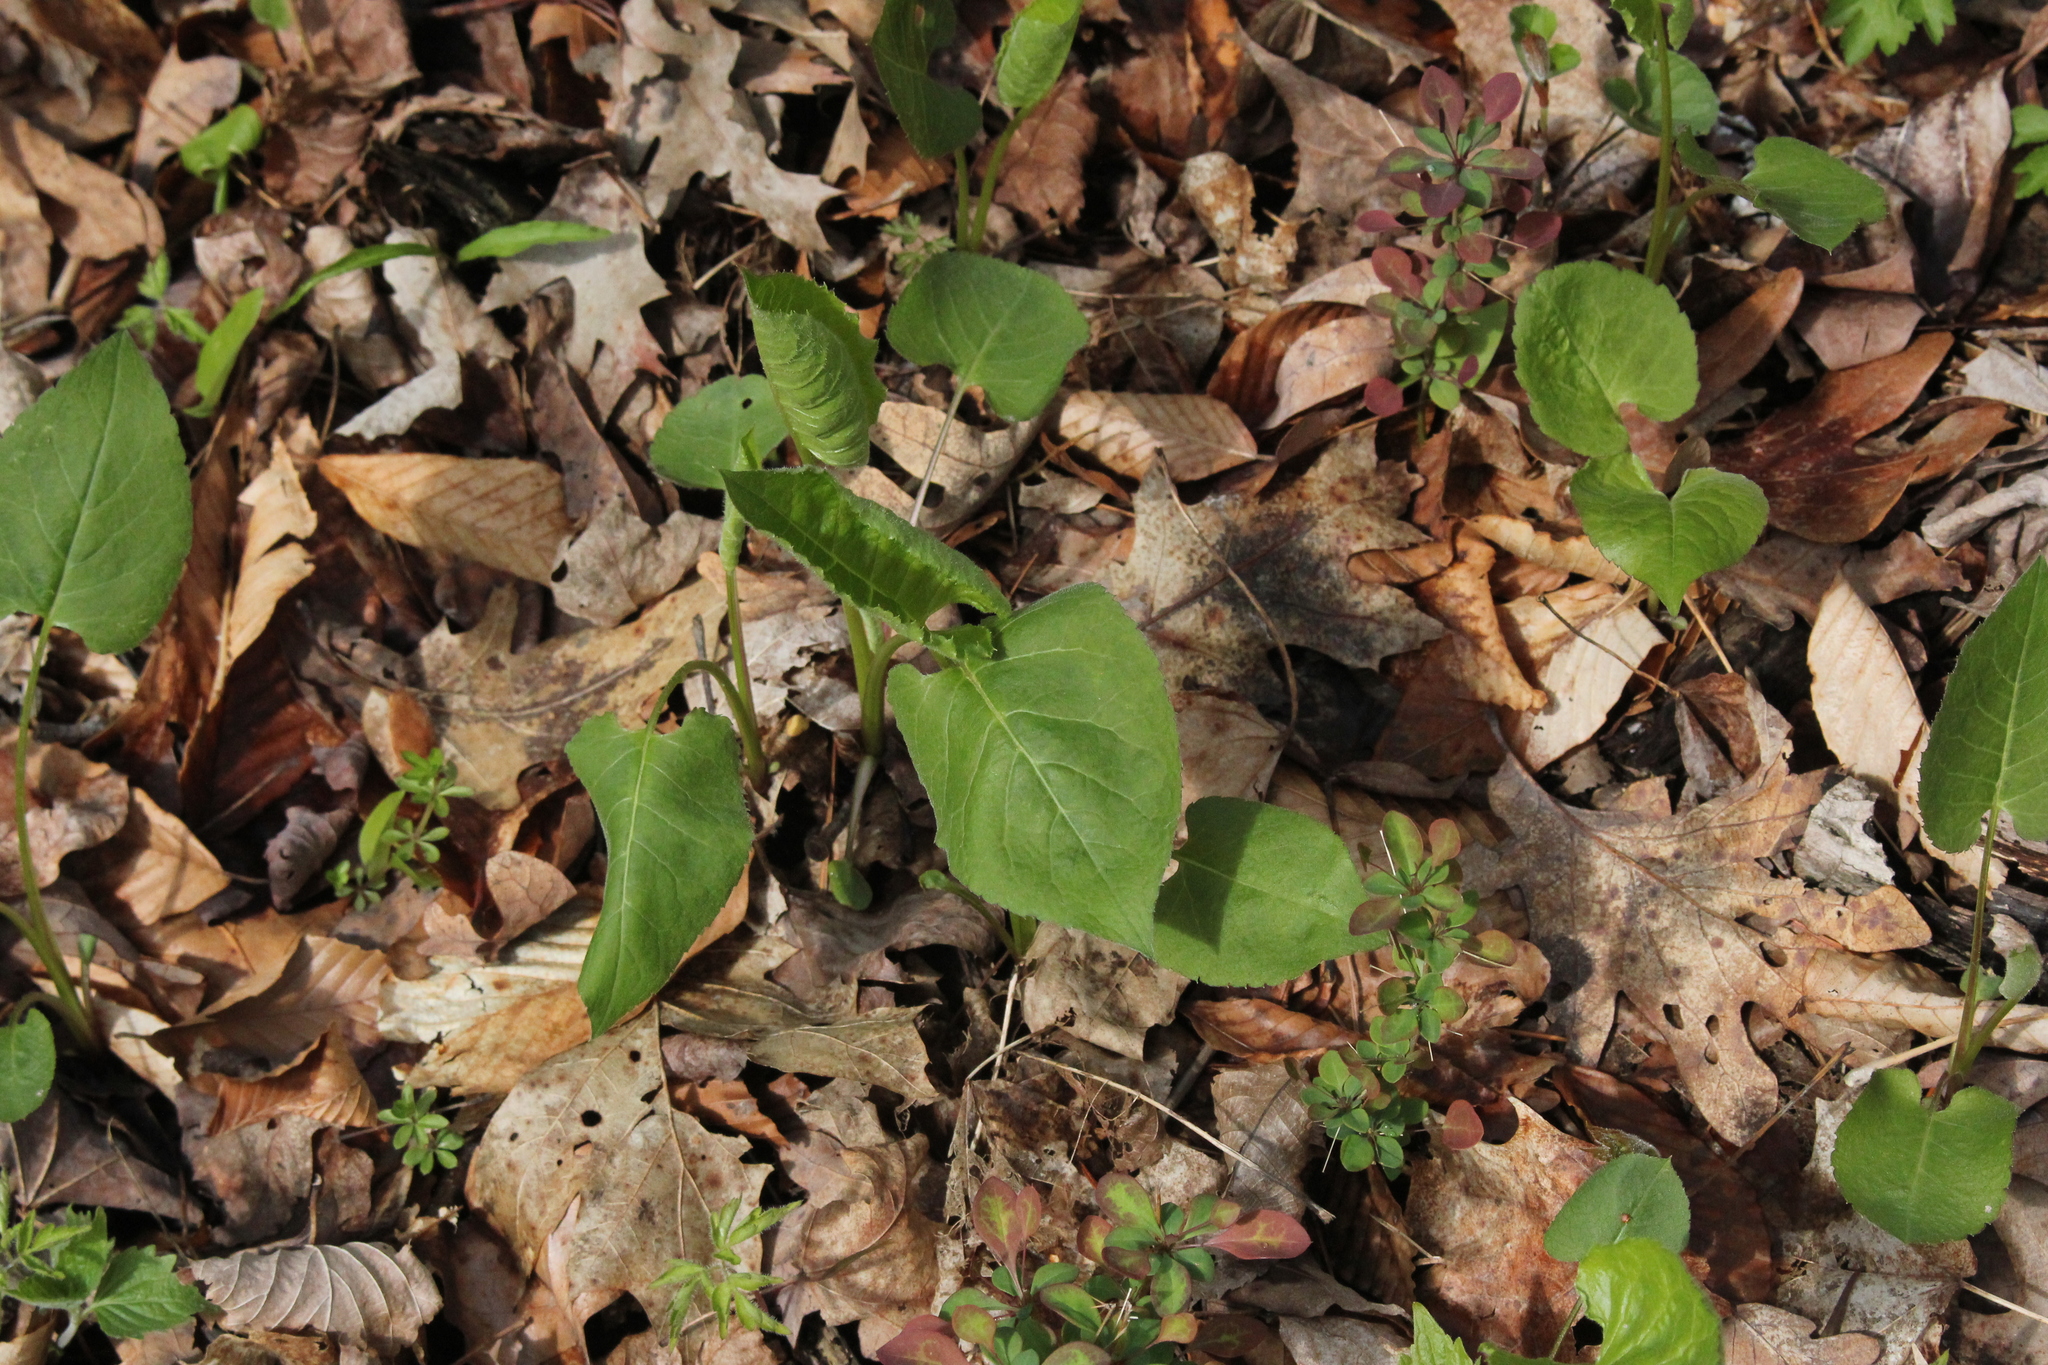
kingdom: Plantae
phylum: Tracheophyta
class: Magnoliopsida
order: Asterales
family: Asteraceae
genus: Eurybia
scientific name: Eurybia macrophylla
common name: Big-leaved aster
